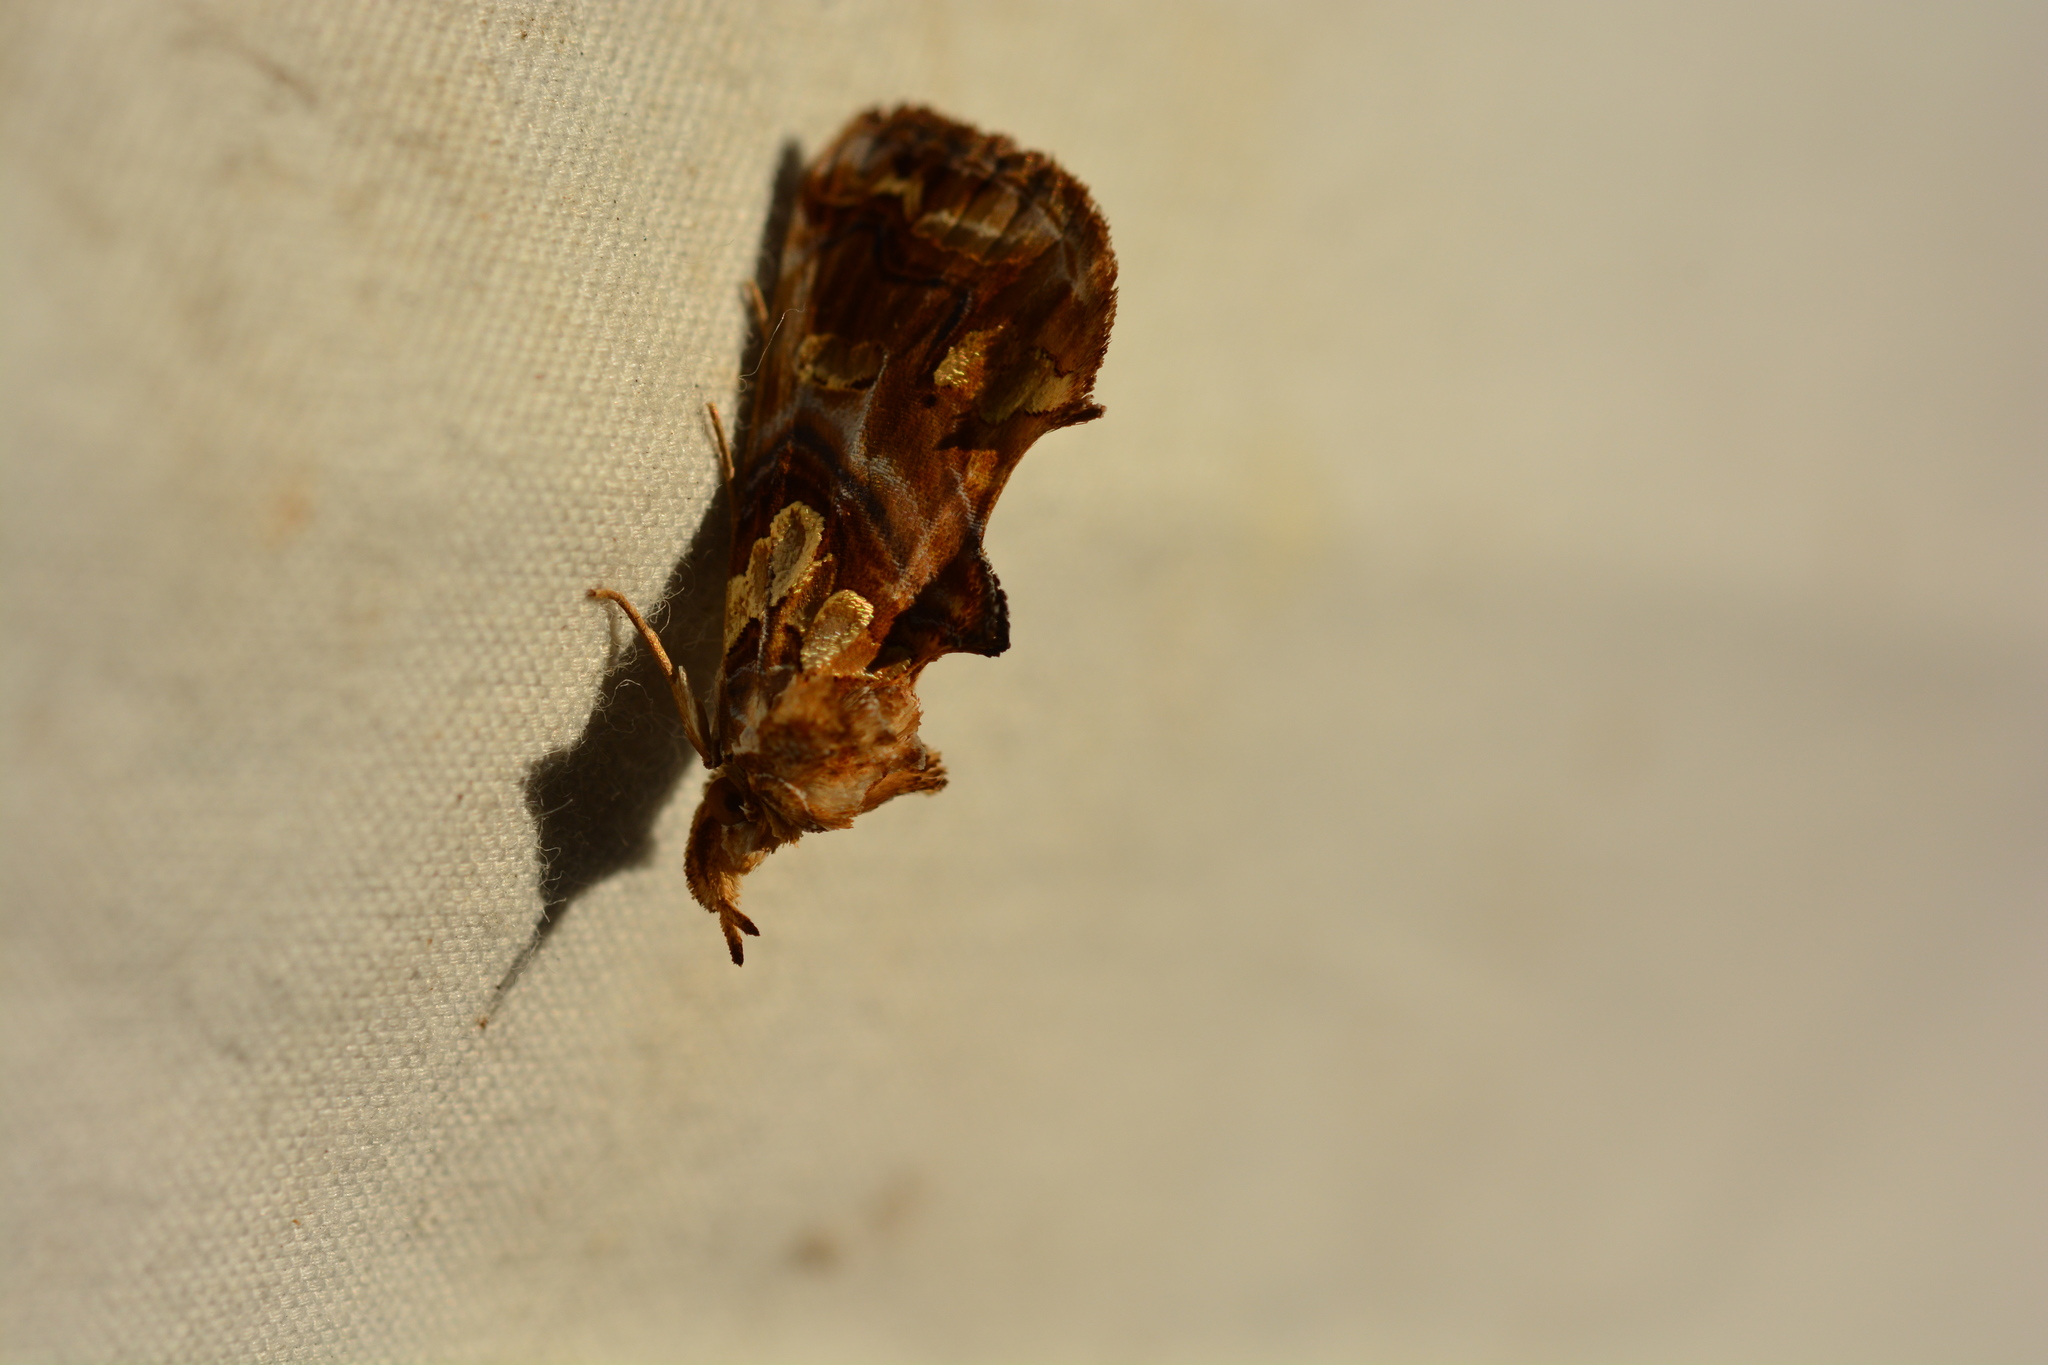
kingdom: Animalia
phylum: Arthropoda
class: Insecta
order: Lepidoptera
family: Erebidae
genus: Plusiodonta
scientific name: Plusiodonta compressipalpis
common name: Moonseed moth
